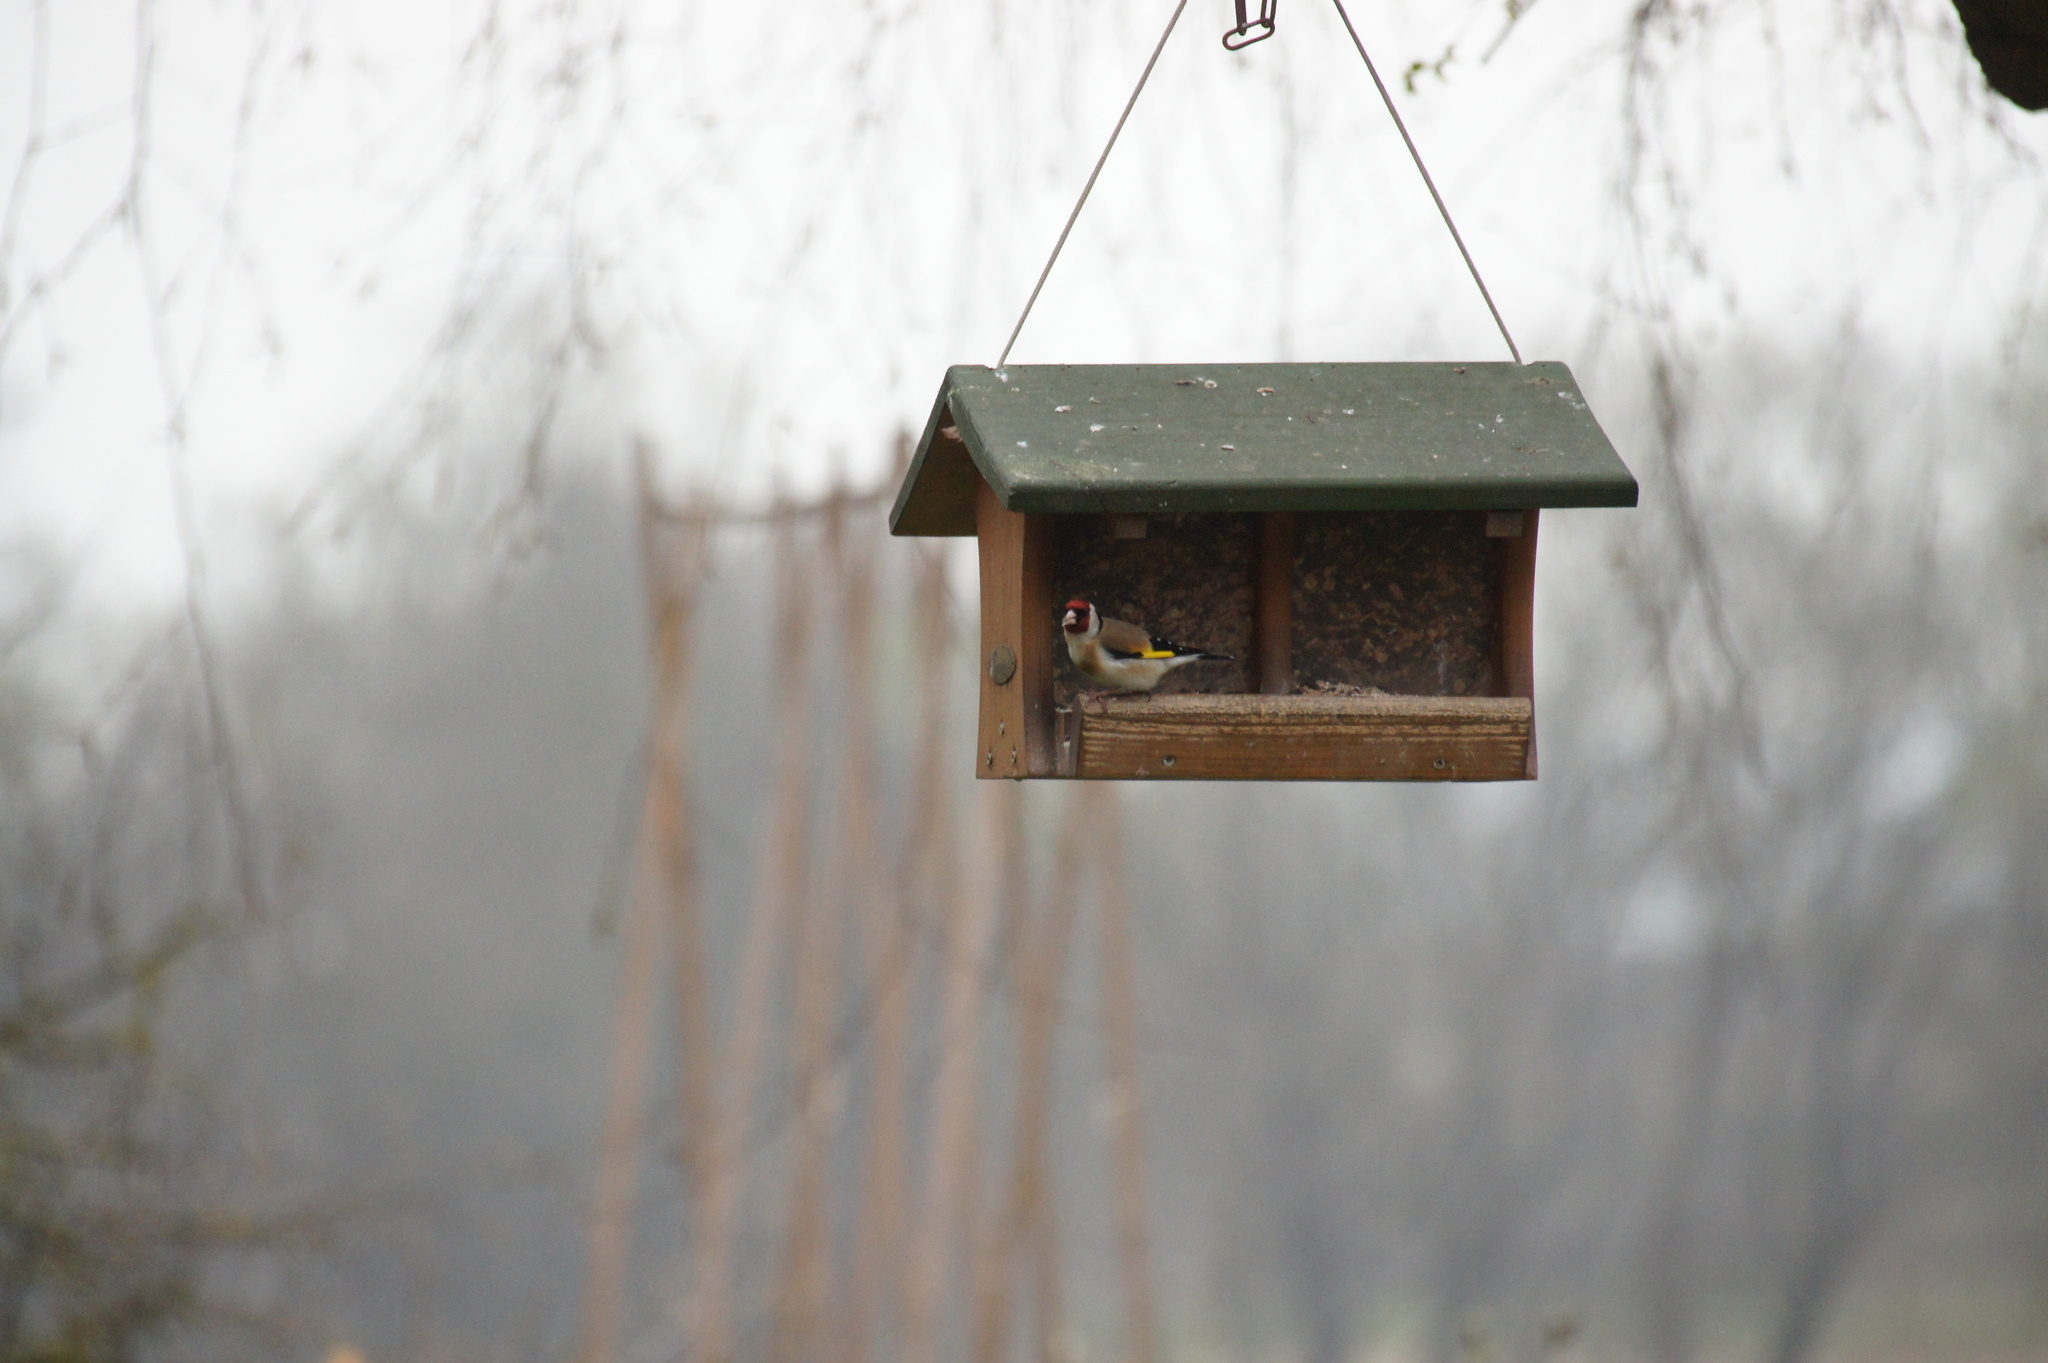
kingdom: Animalia
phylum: Chordata
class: Aves
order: Passeriformes
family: Fringillidae
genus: Carduelis
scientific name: Carduelis carduelis
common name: European goldfinch
